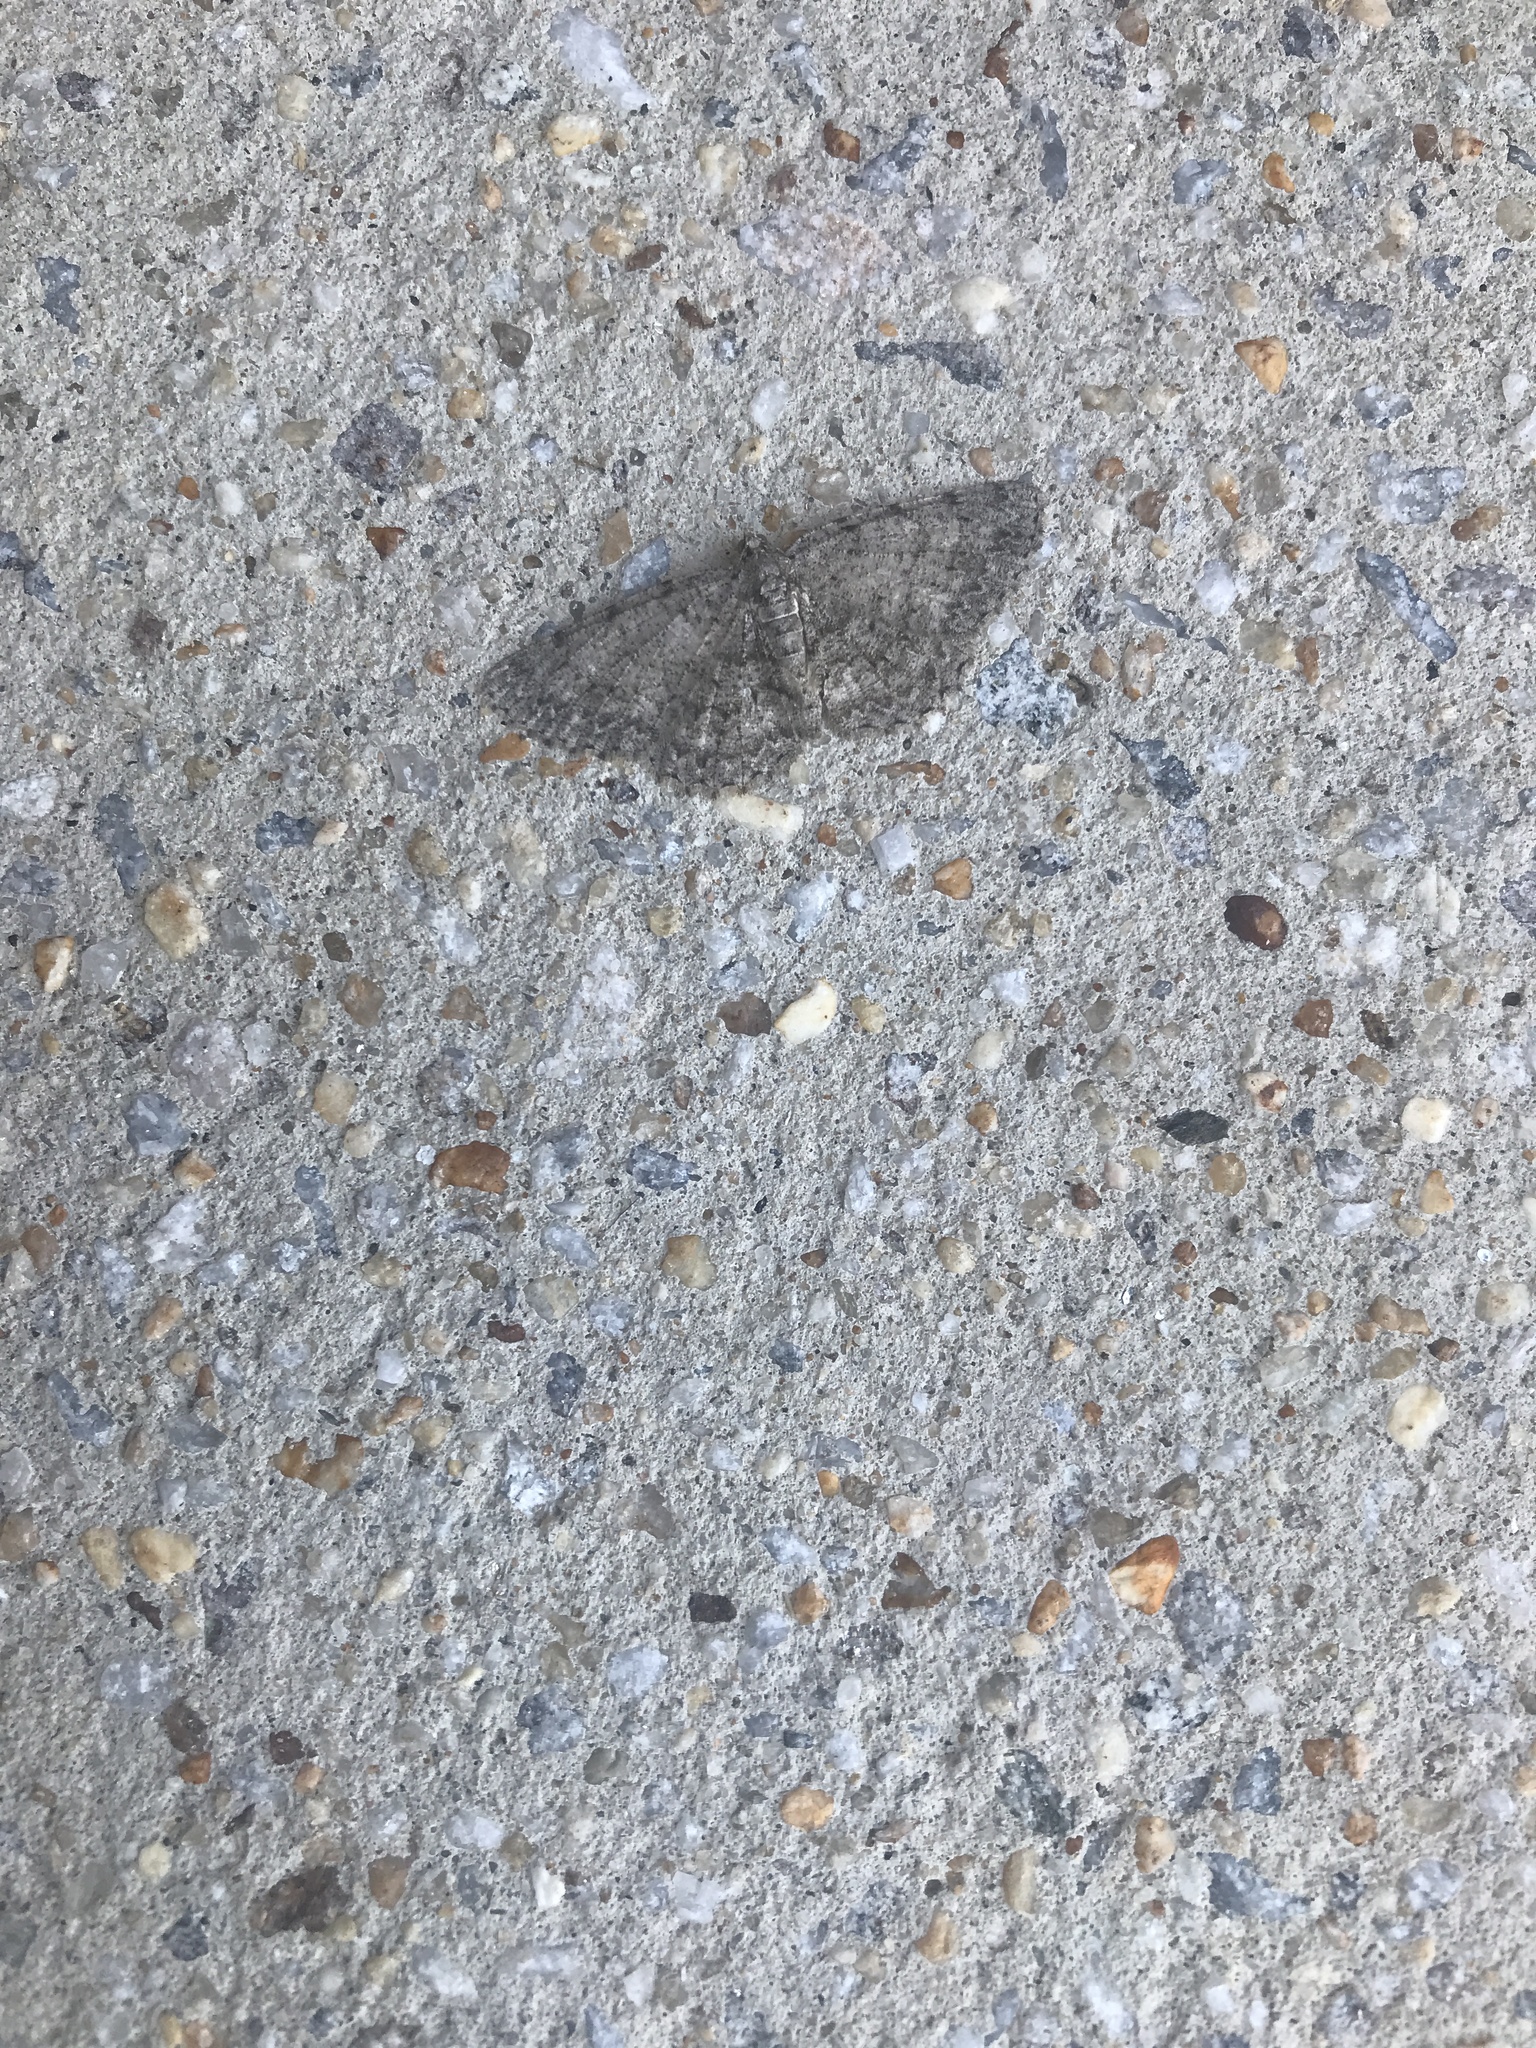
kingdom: Animalia
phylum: Arthropoda
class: Insecta
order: Lepidoptera
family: Geometridae
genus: Protoboarmia
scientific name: Protoboarmia porcelaria
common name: Porcelain gray
